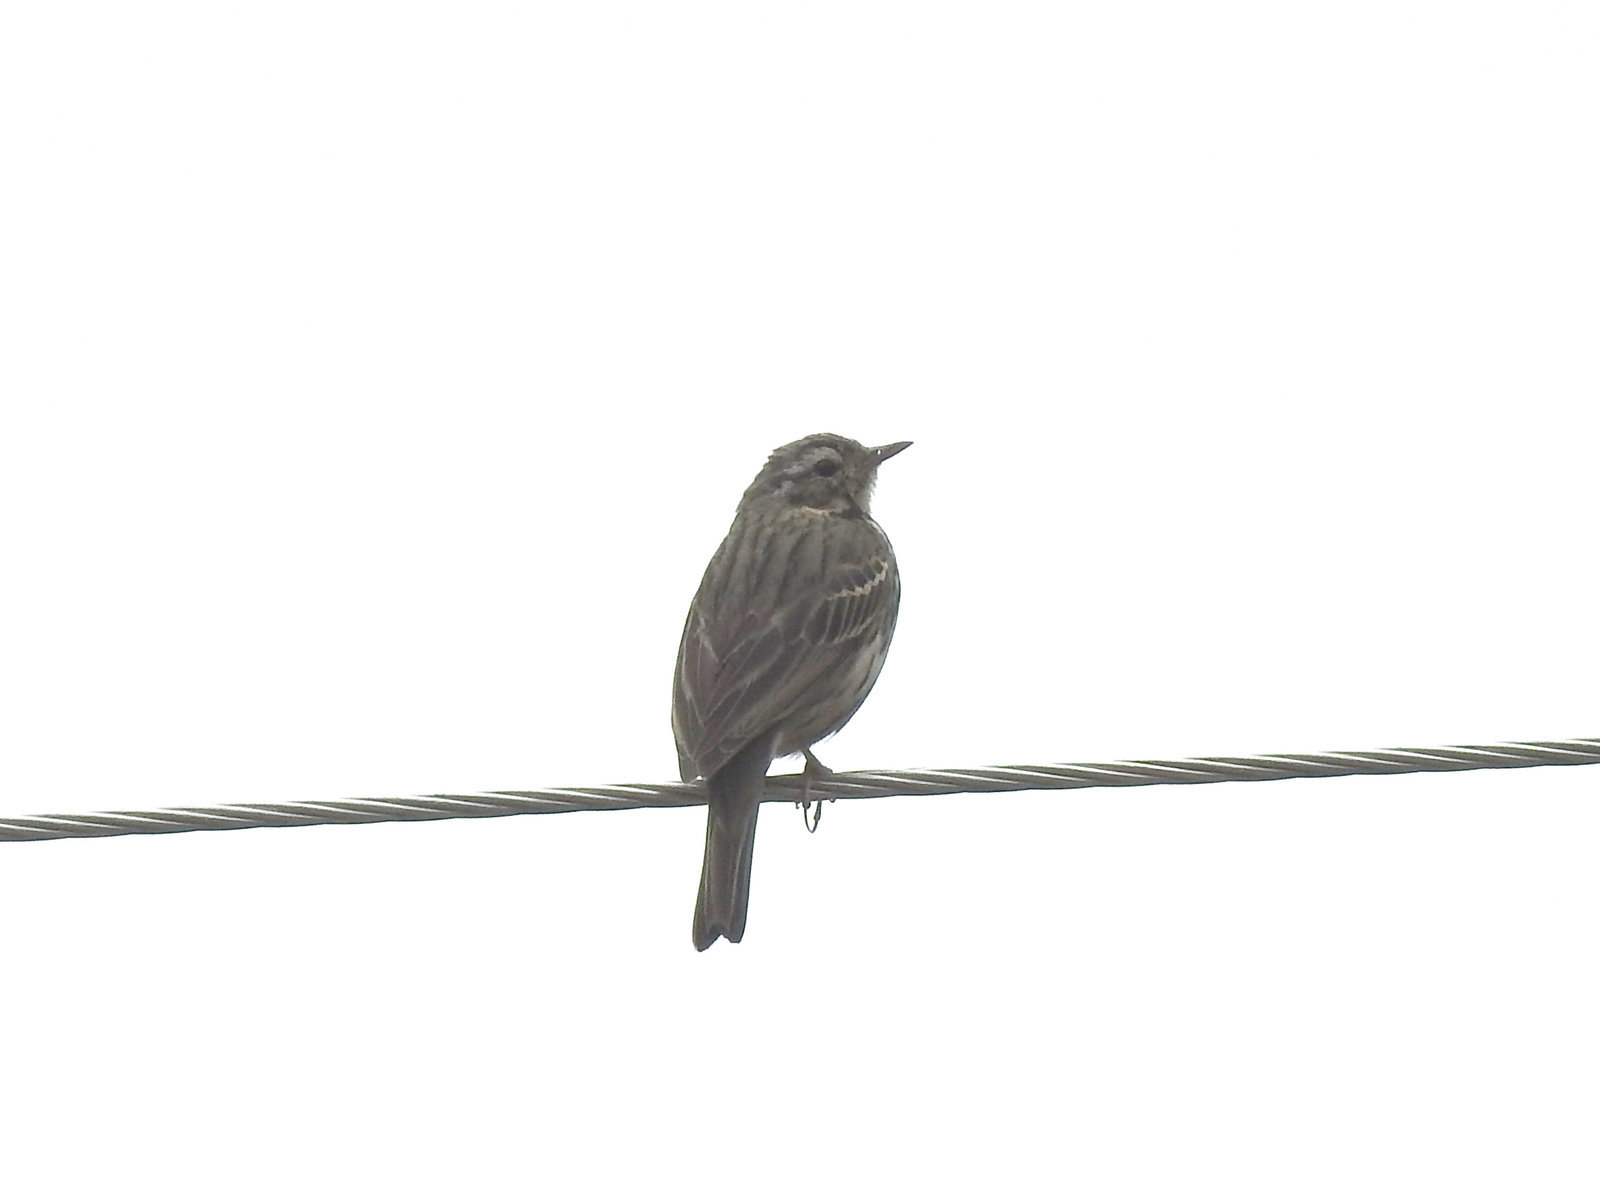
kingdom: Animalia
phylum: Chordata
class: Aves
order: Passeriformes
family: Motacillidae
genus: Anthus
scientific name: Anthus hodgsoni
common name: Olive-backed pipit
